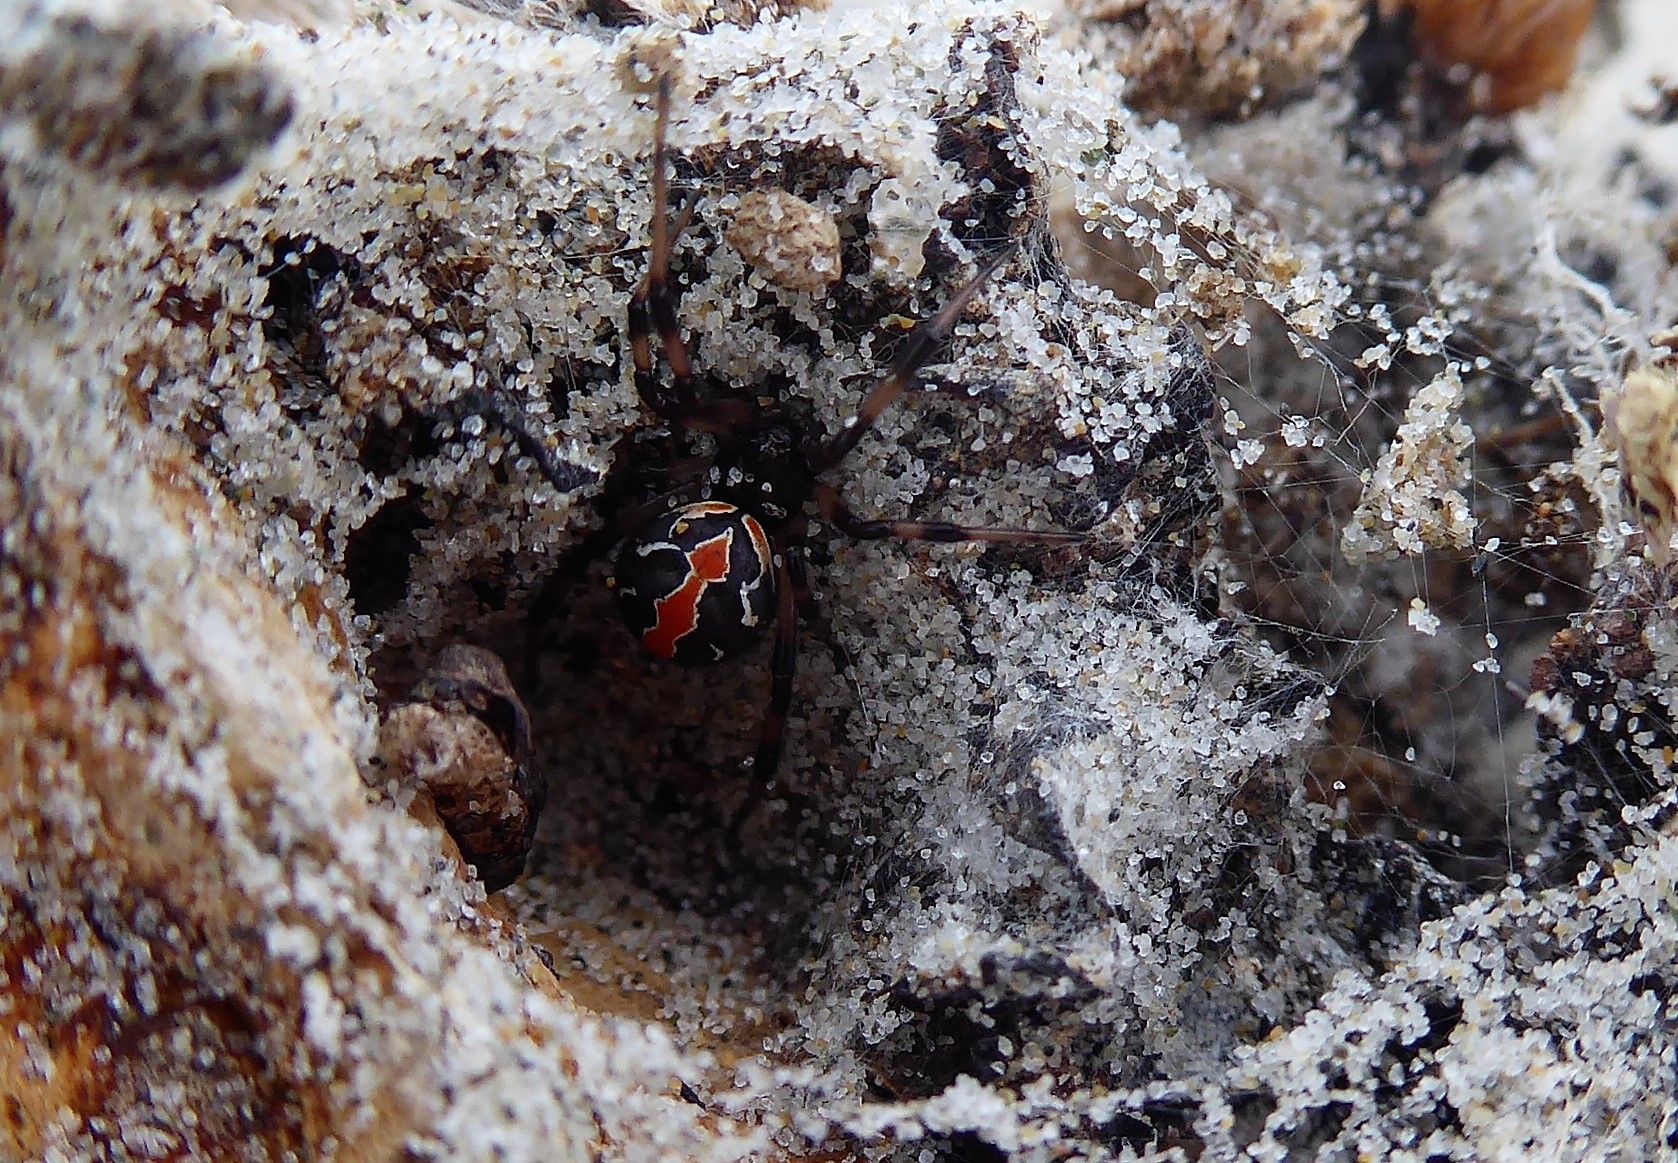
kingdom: Animalia
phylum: Arthropoda
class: Arachnida
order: Araneae
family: Theridiidae
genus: Latrodectus
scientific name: Latrodectus katipo
